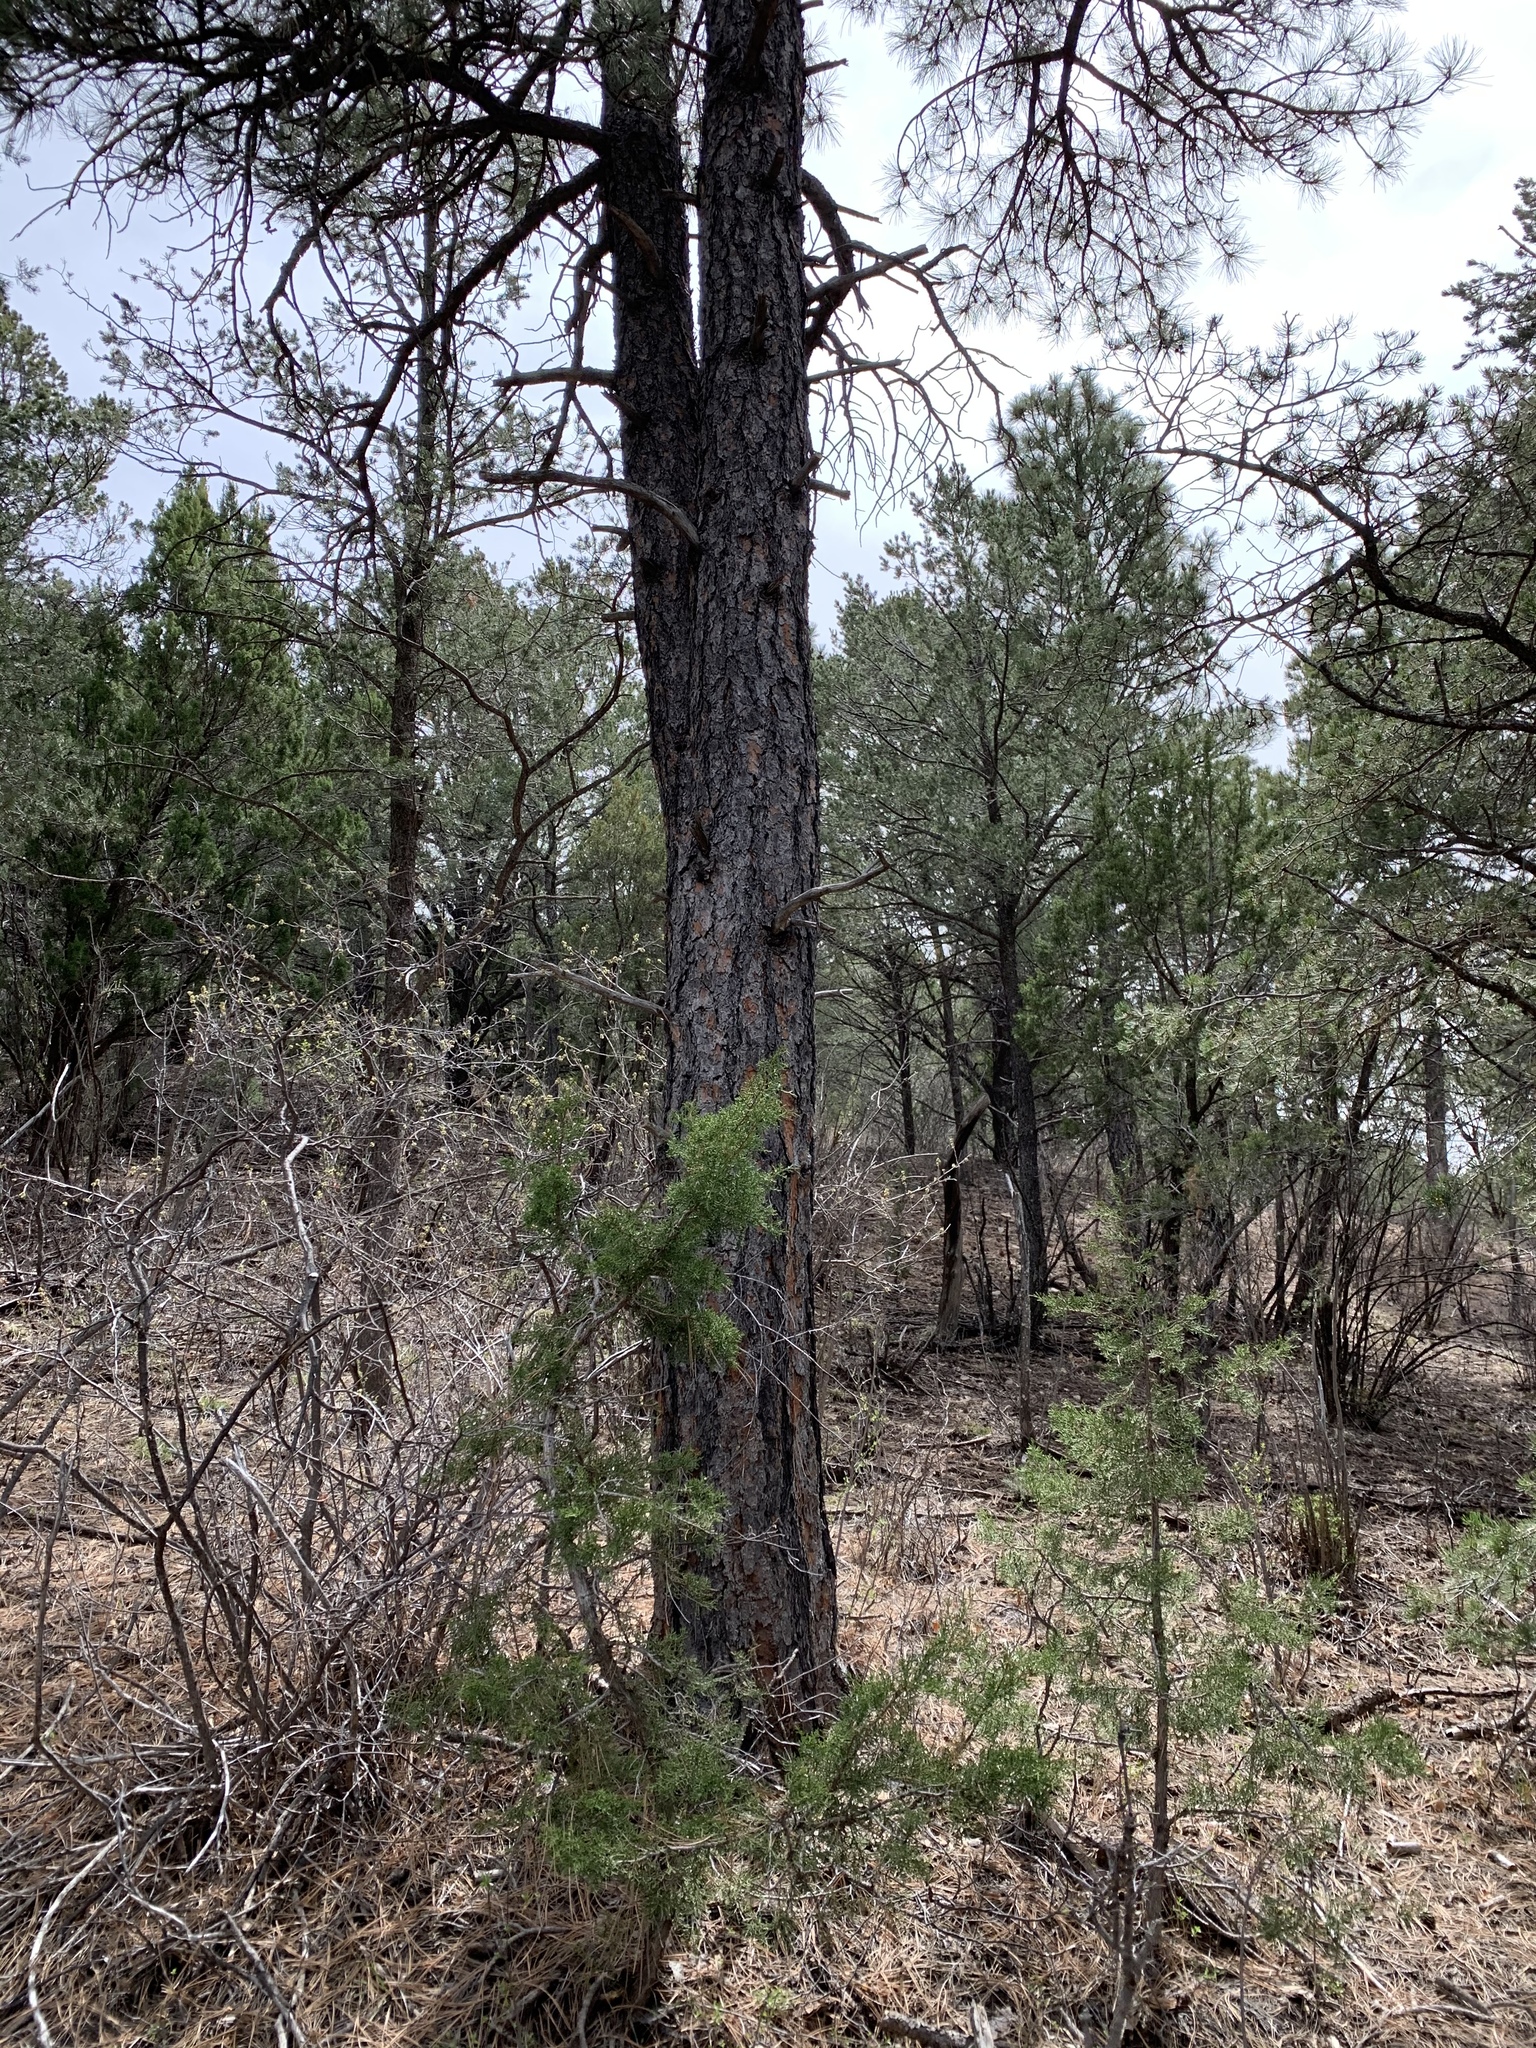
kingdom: Plantae
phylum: Tracheophyta
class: Pinopsida
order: Pinales
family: Pinaceae
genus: Pinus
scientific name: Pinus ponderosa
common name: Western yellow-pine
